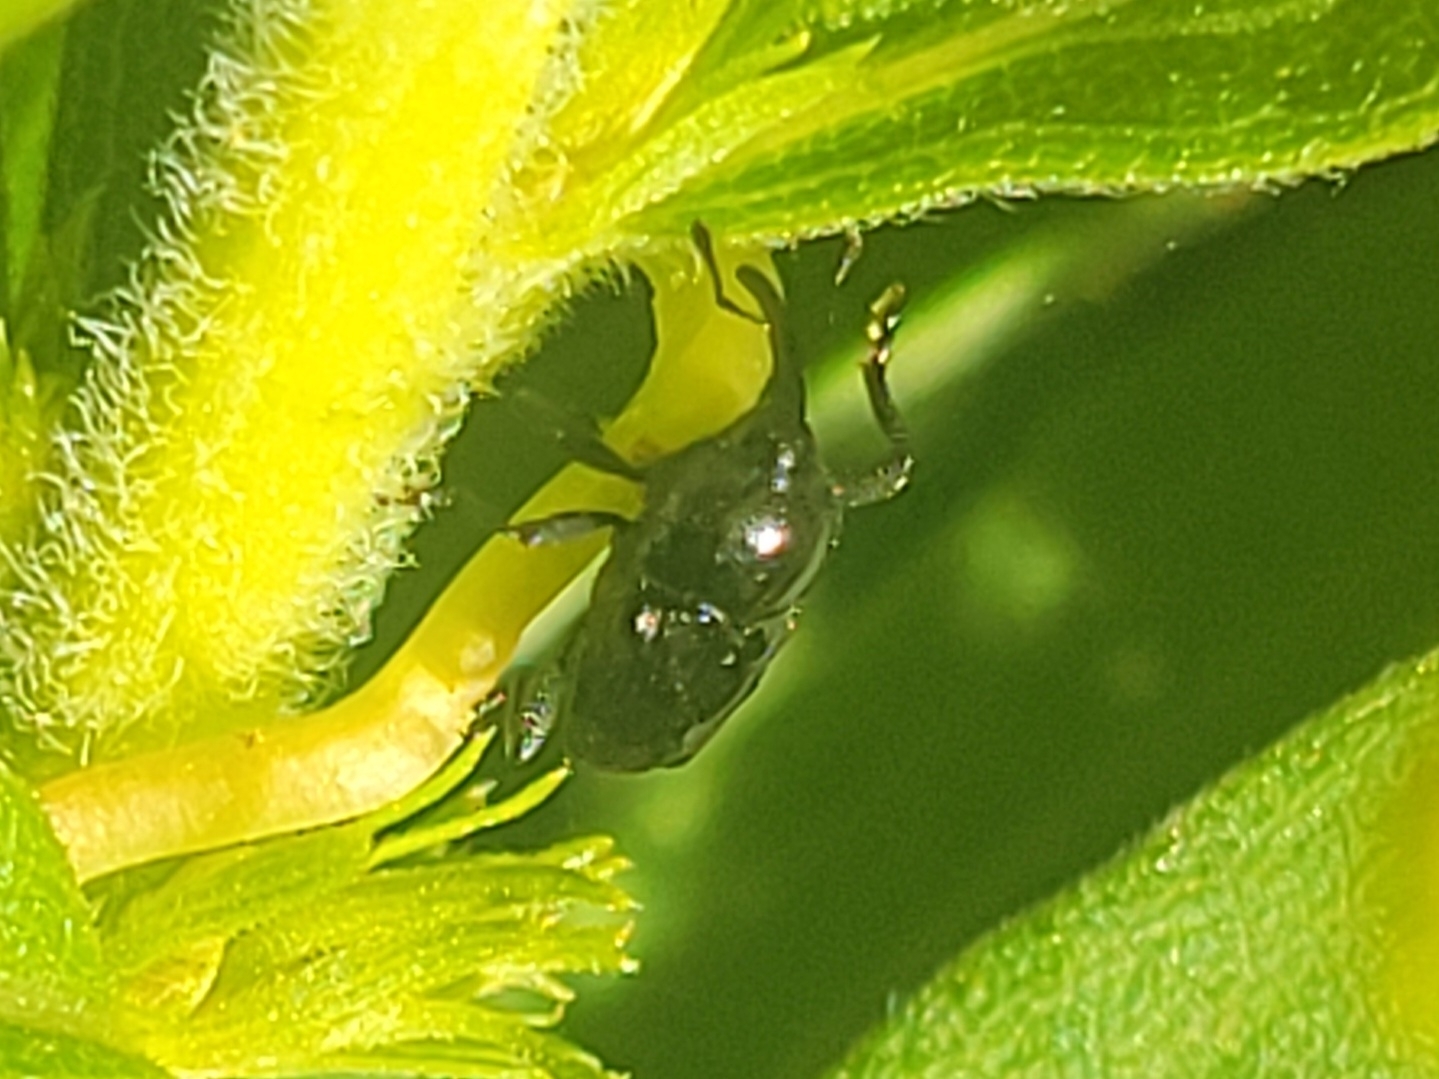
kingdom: Animalia
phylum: Arthropoda
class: Insecta
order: Coleoptera
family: Curculionidae
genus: Madarellus
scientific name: Madarellus undulatus
